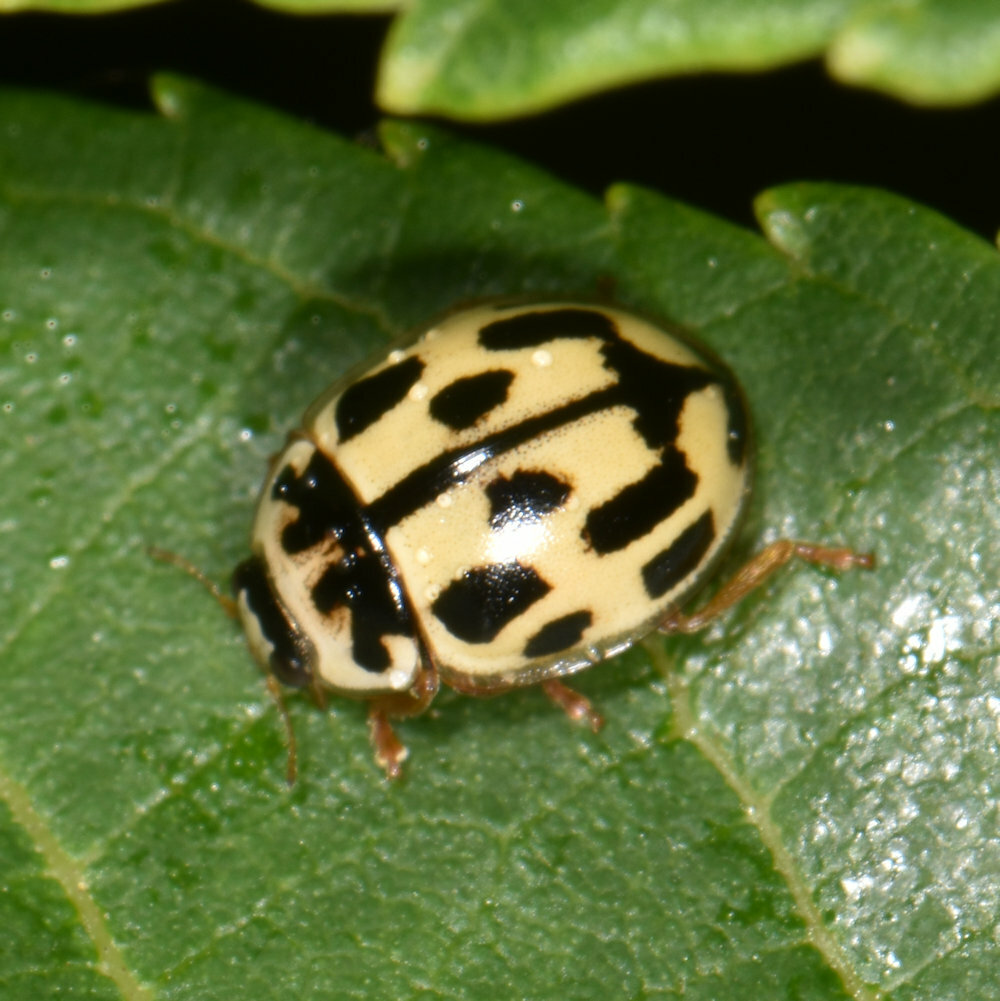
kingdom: Animalia
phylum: Arthropoda
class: Insecta
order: Coleoptera
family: Coccinellidae
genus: Propylaea
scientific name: Propylaea quatuordecimpunctata
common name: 14-spotted ladybird beetle
